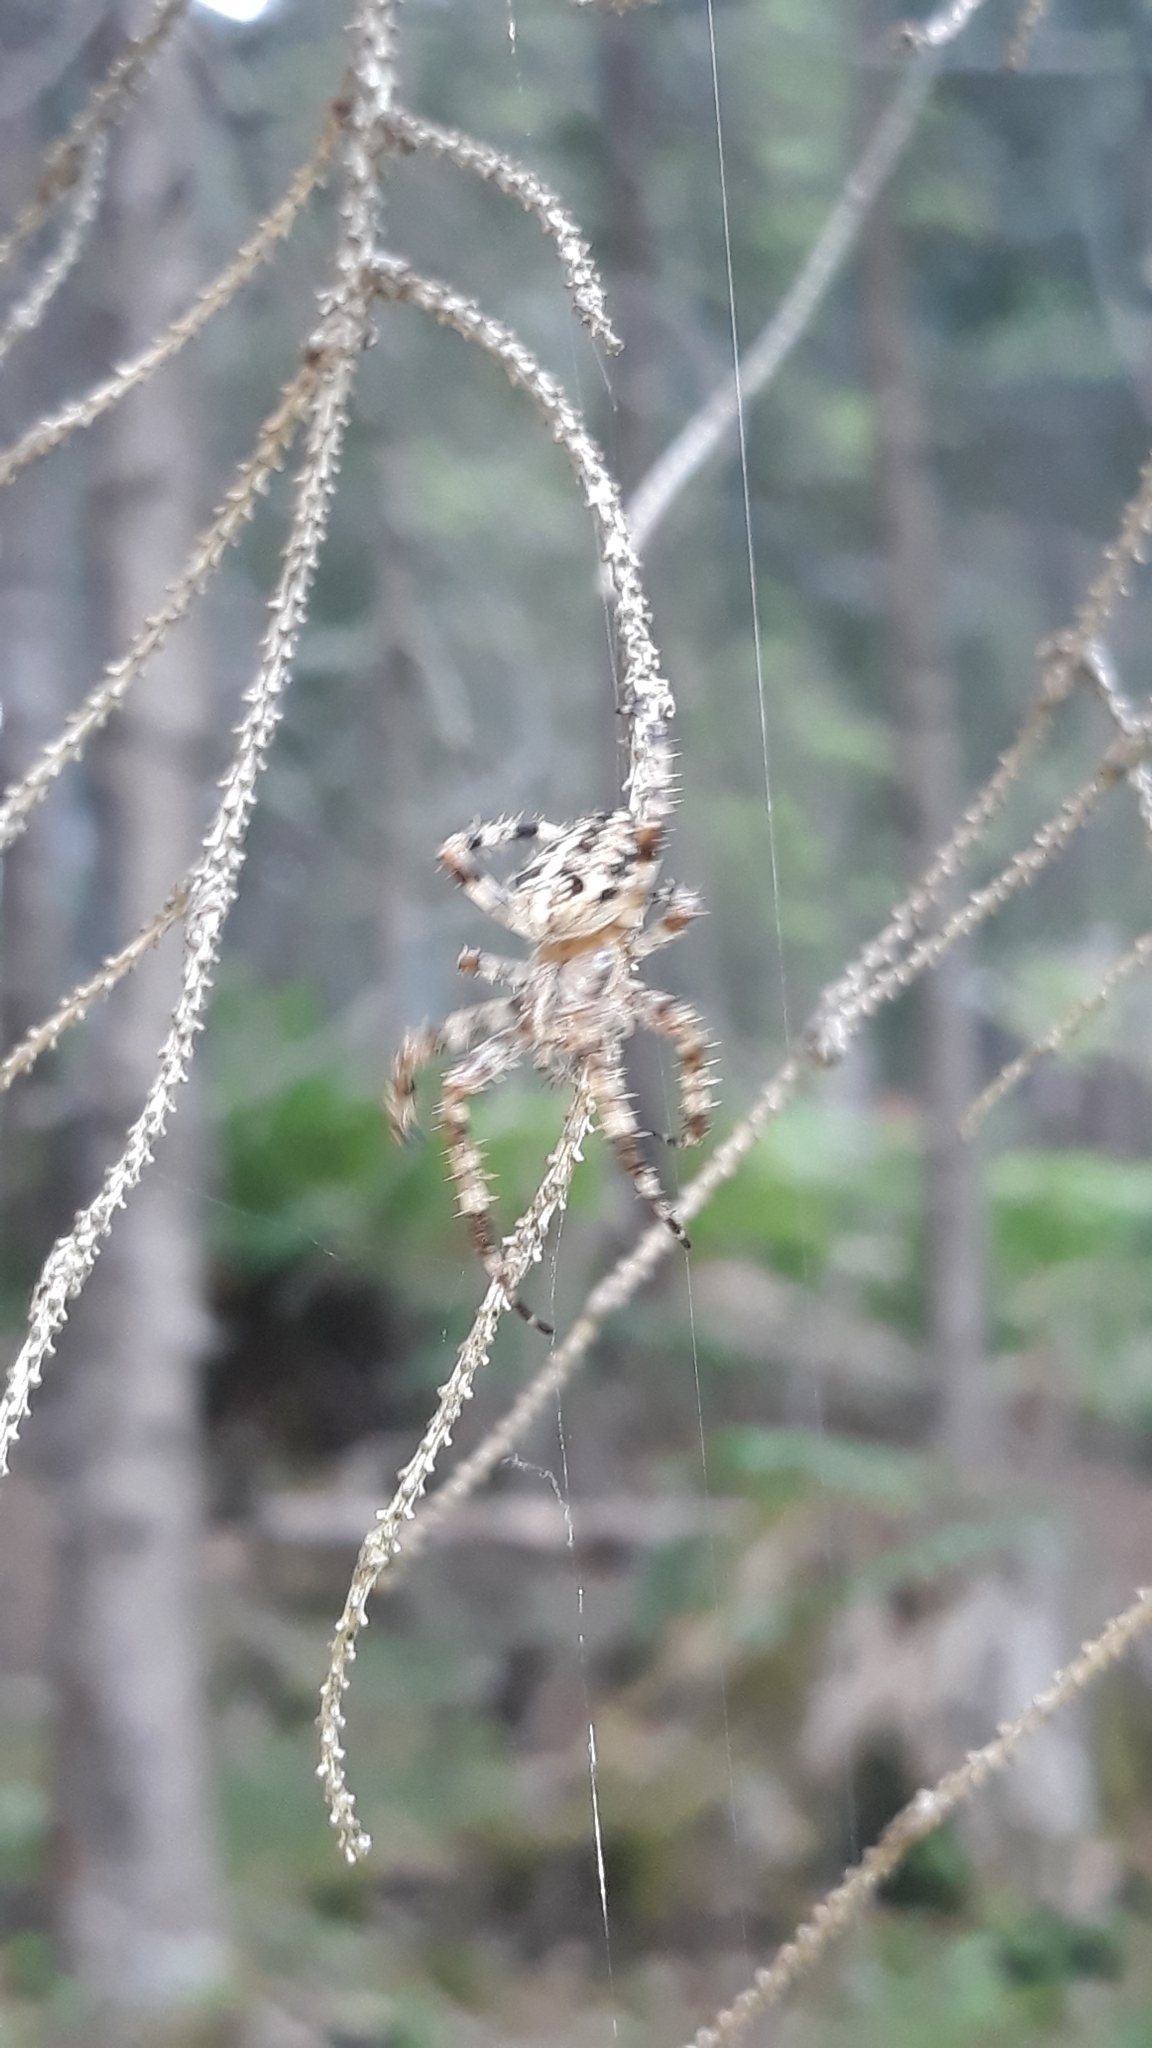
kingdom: Animalia
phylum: Arthropoda
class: Arachnida
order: Araneae
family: Araneidae
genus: Araneus
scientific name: Araneus diadematus
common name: Cross orbweaver
